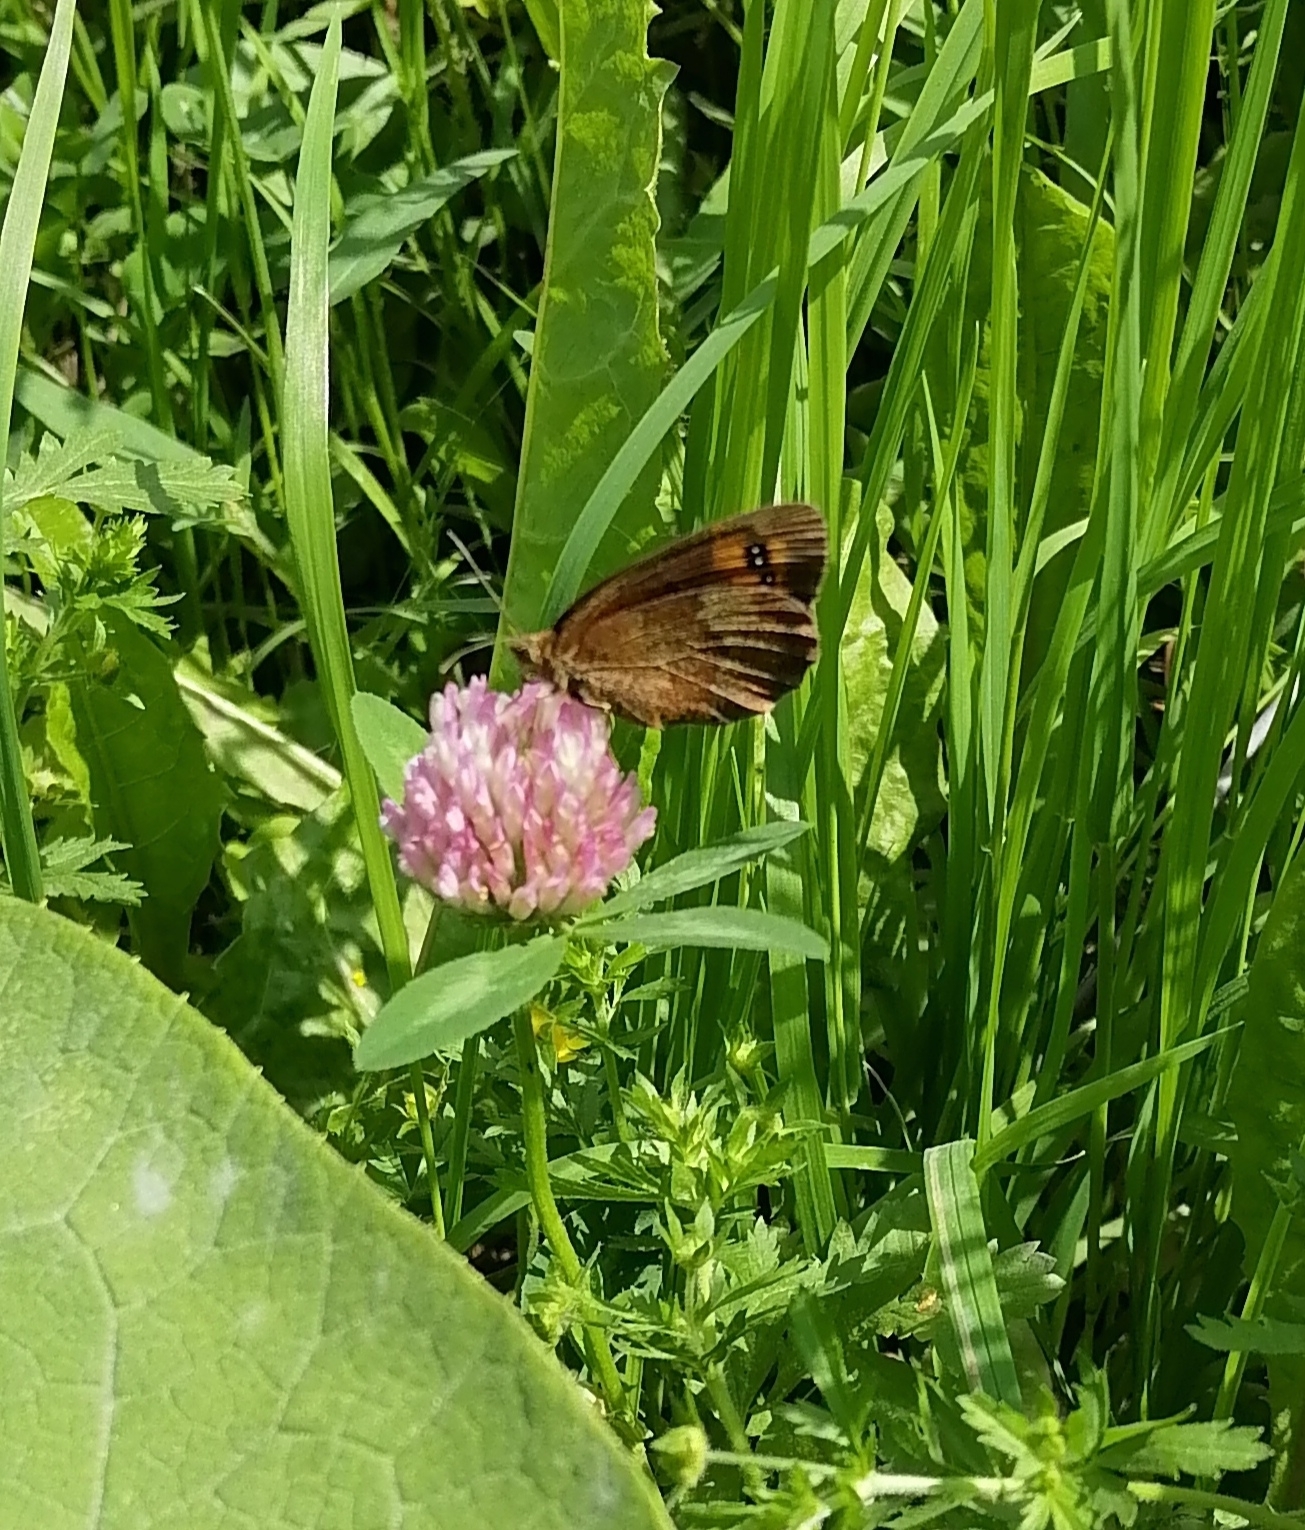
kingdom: Animalia
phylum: Arthropoda
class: Insecta
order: Lepidoptera
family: Nymphalidae
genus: Erebia
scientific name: Erebia aethiops
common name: Scotch argus
